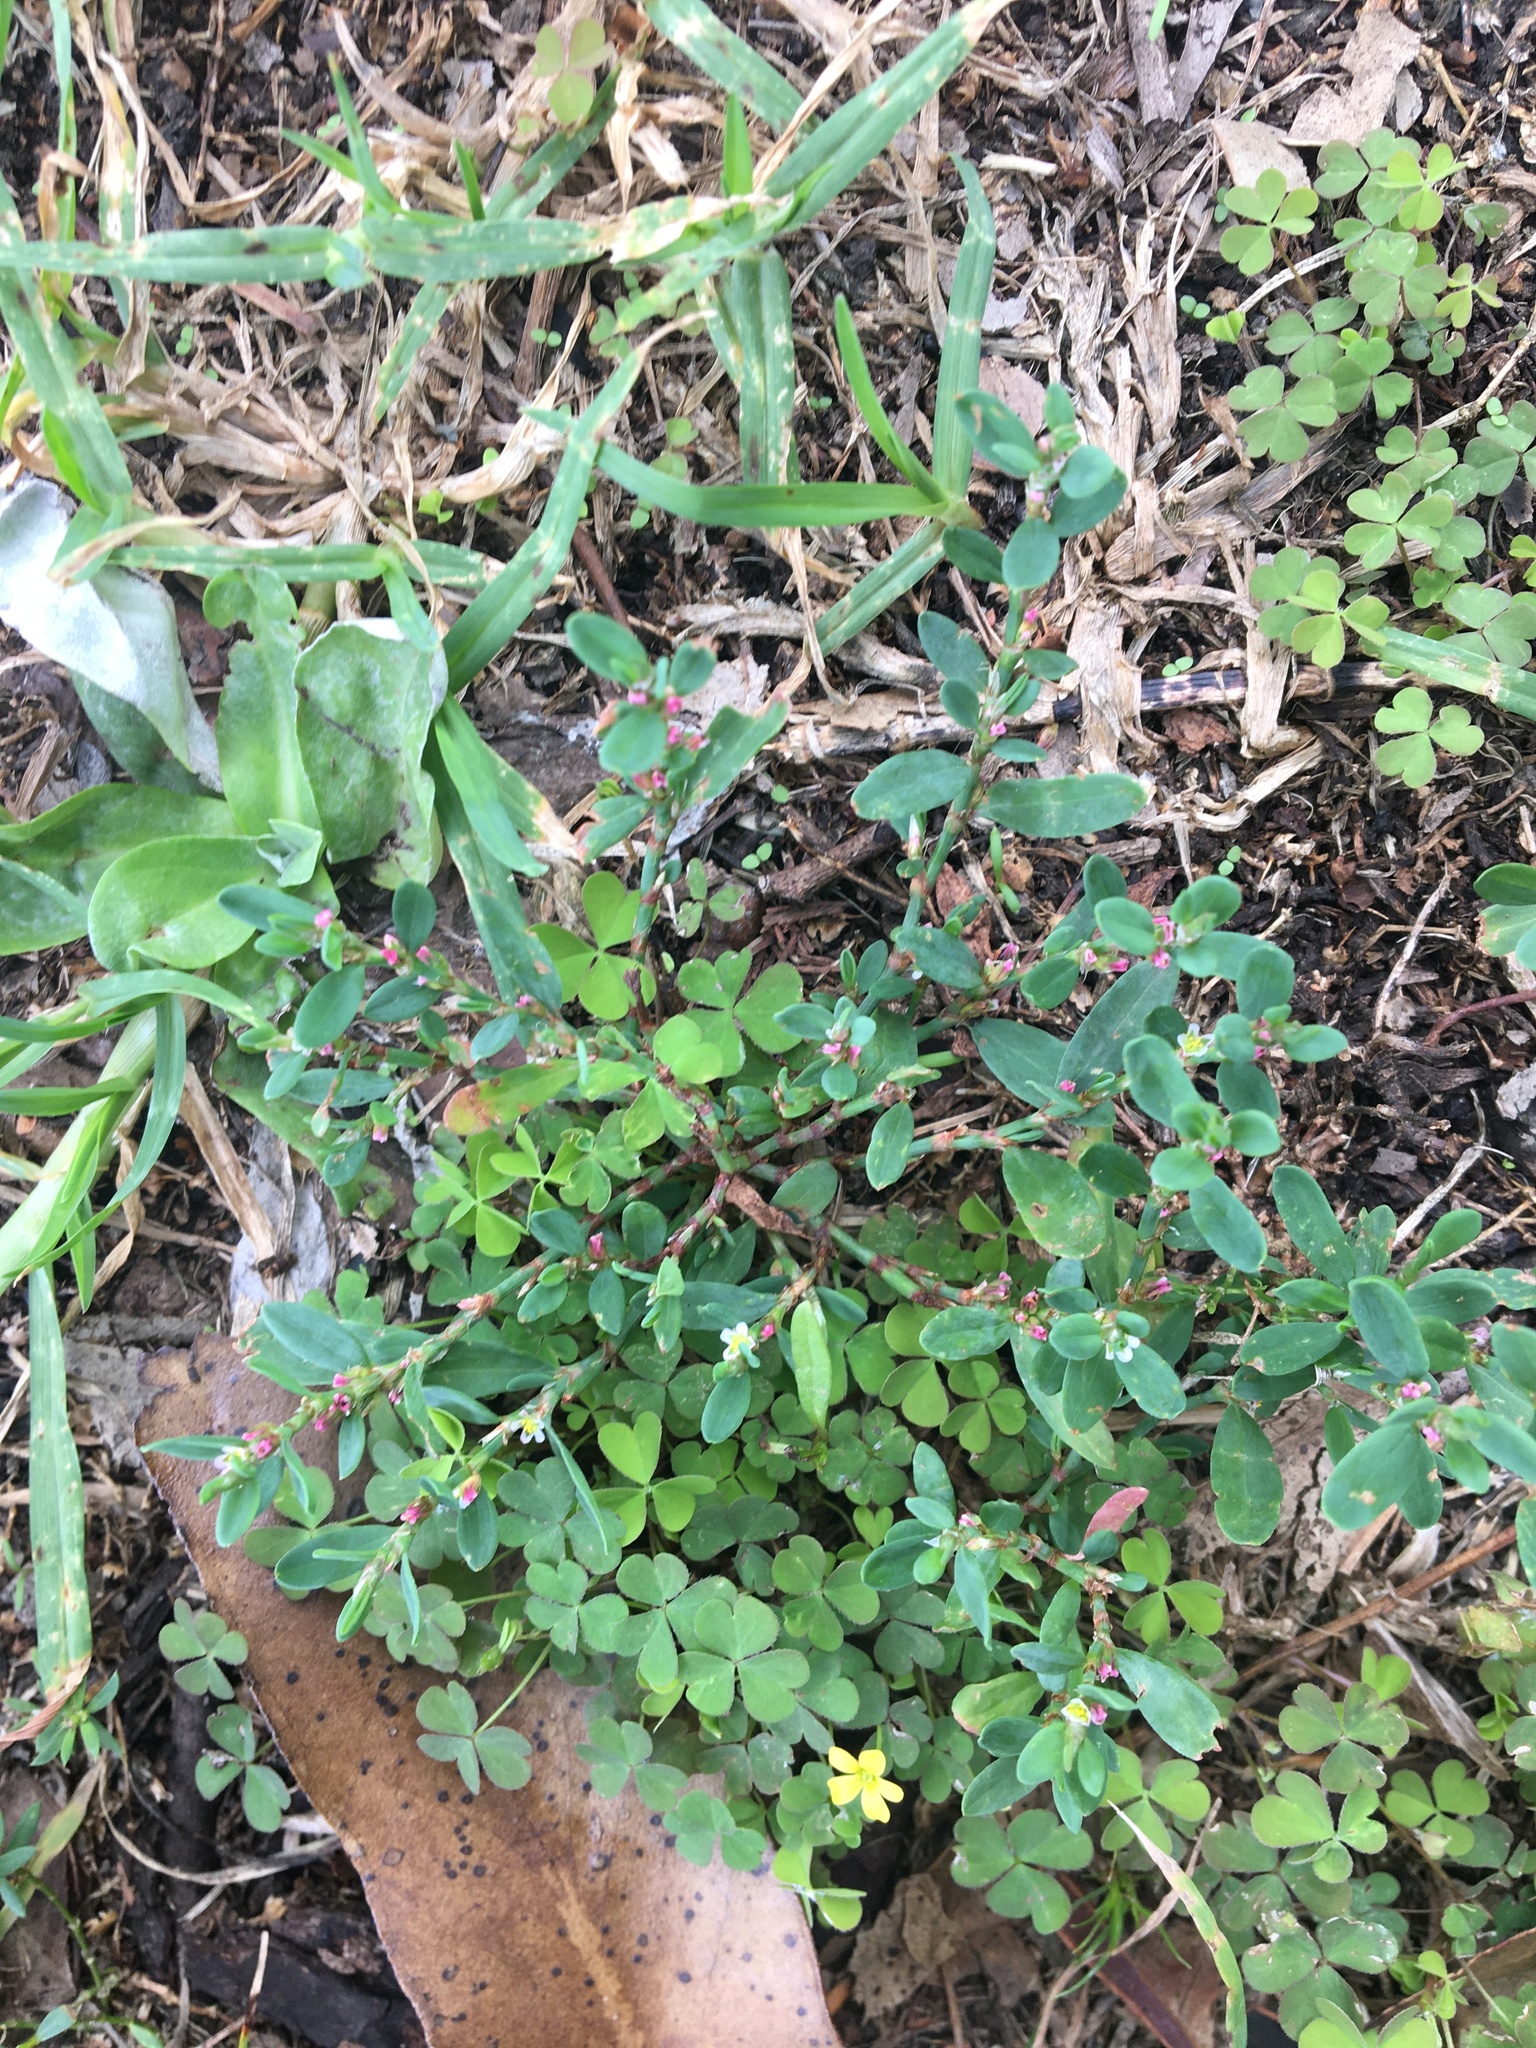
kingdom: Plantae
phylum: Tracheophyta
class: Magnoliopsida
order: Caryophyllales
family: Polygonaceae
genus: Polygonum
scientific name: Polygonum aviculare
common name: Prostrate knotweed
